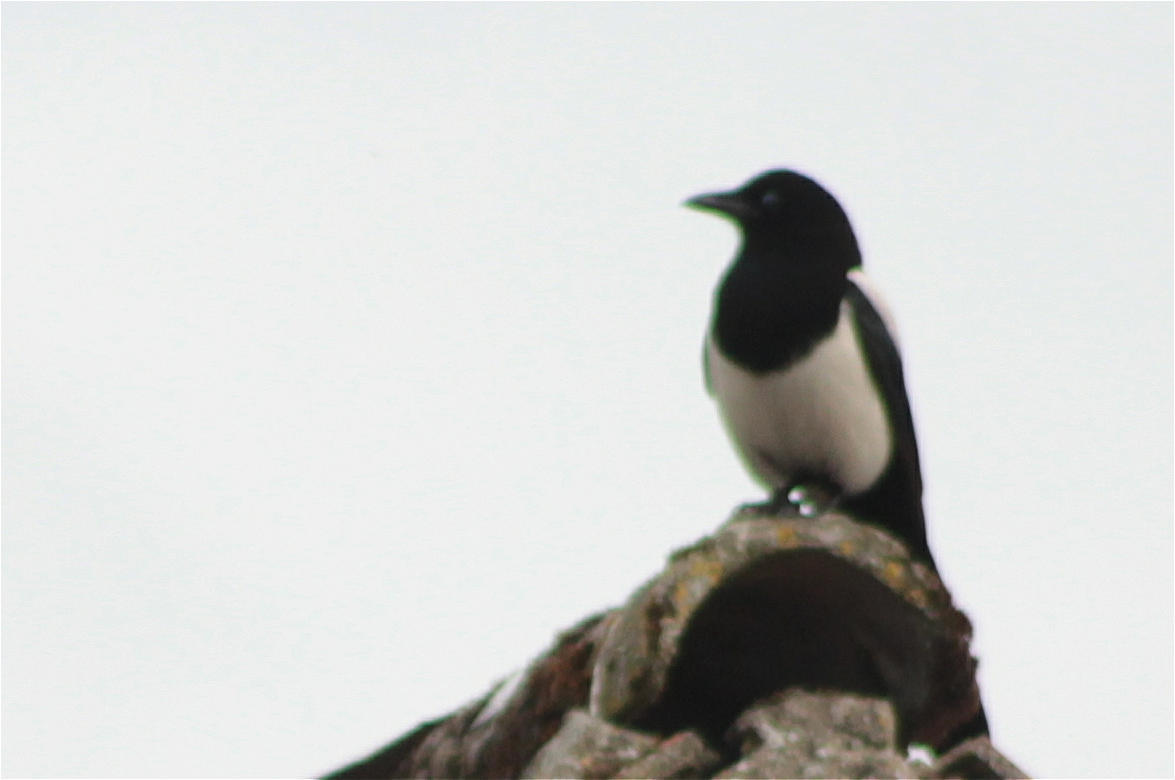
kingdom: Animalia
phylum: Chordata
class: Aves
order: Passeriformes
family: Corvidae
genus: Pica
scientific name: Pica pica
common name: Eurasian magpie
